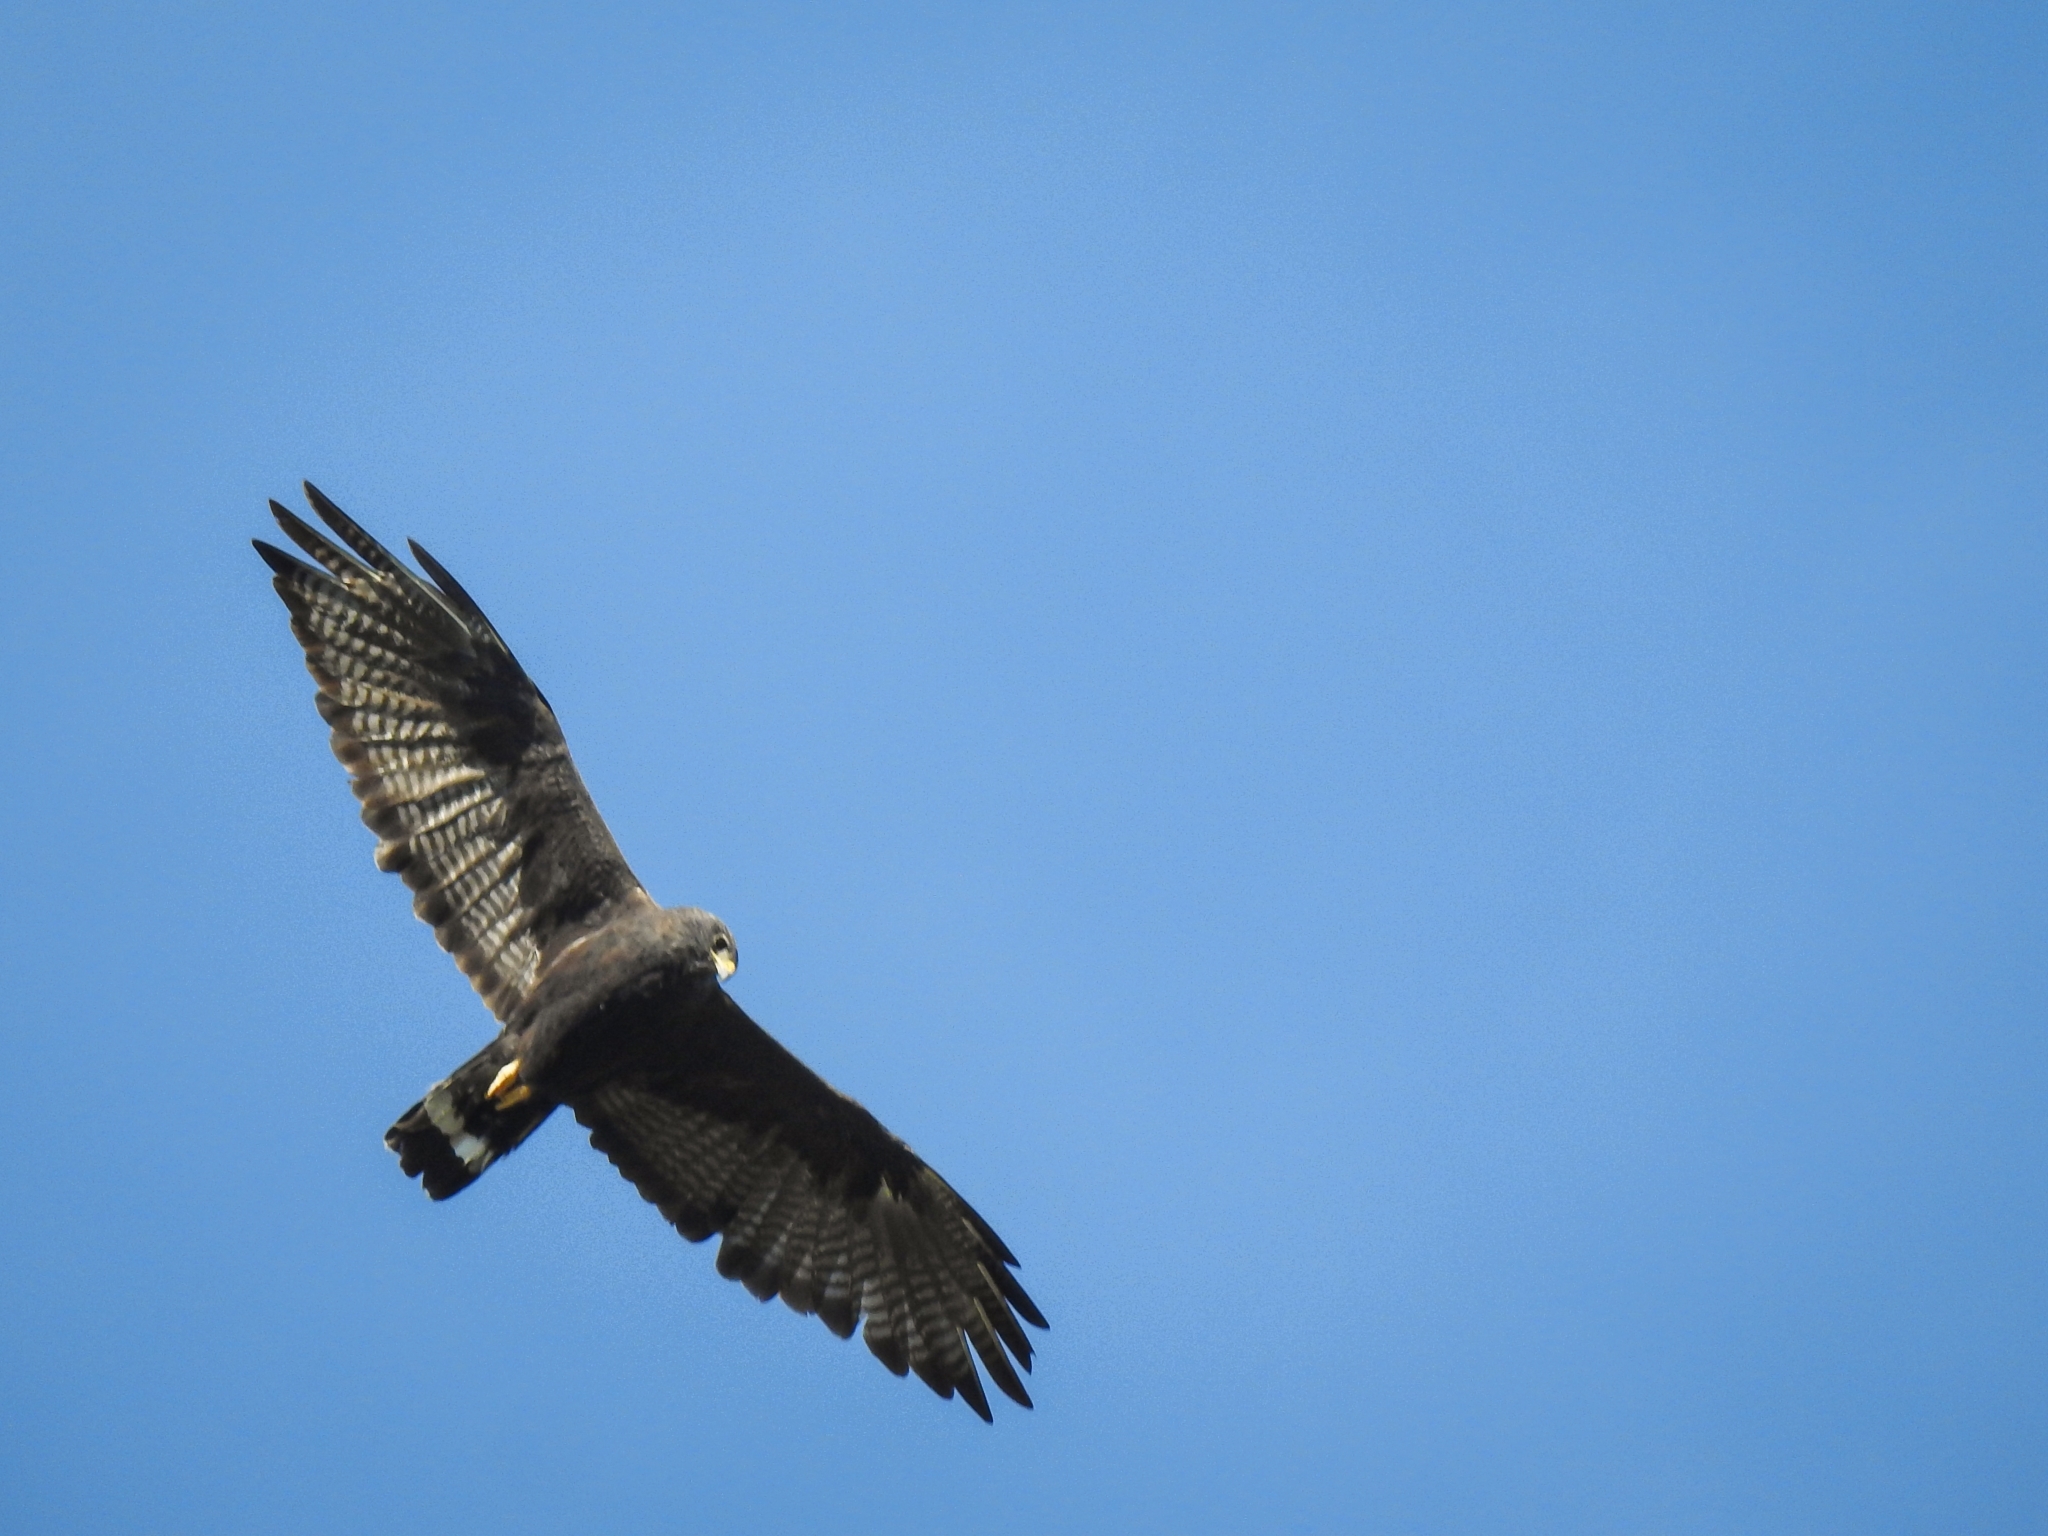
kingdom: Animalia
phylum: Chordata
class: Aves
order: Accipitriformes
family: Accipitridae
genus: Buteo
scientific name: Buteo albonotatus
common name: Zone-tailed hawk
